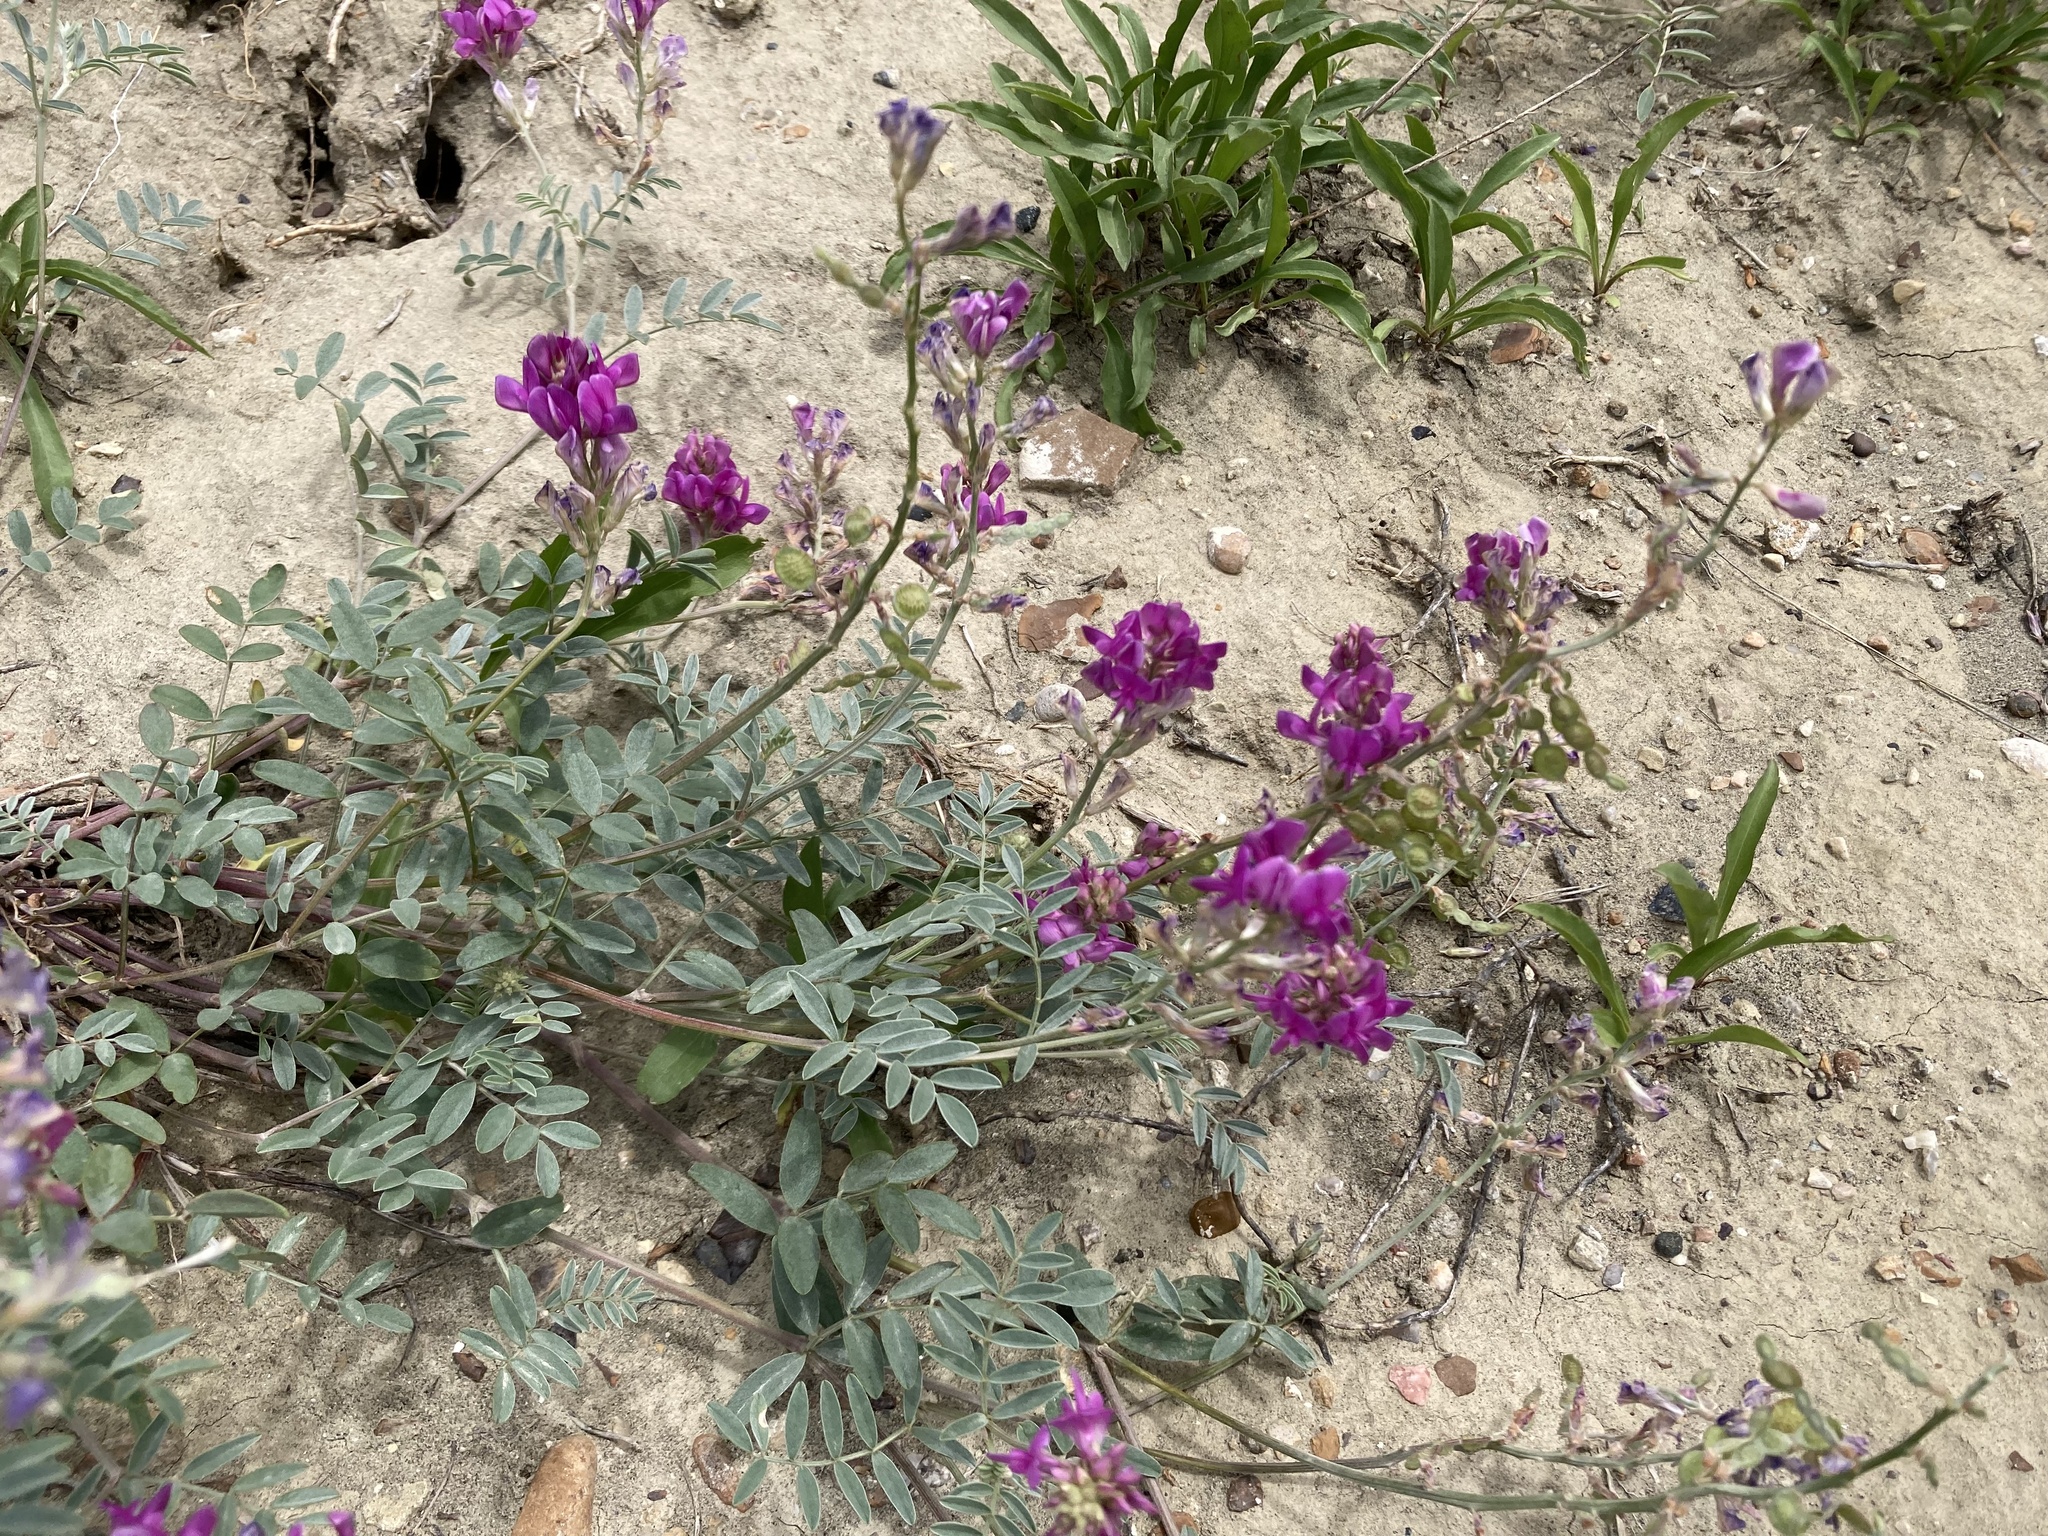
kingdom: Plantae
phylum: Tracheophyta
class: Magnoliopsida
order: Fabales
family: Fabaceae
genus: Hedysarum
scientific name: Hedysarum boreale
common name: Northern sweet-vetch
